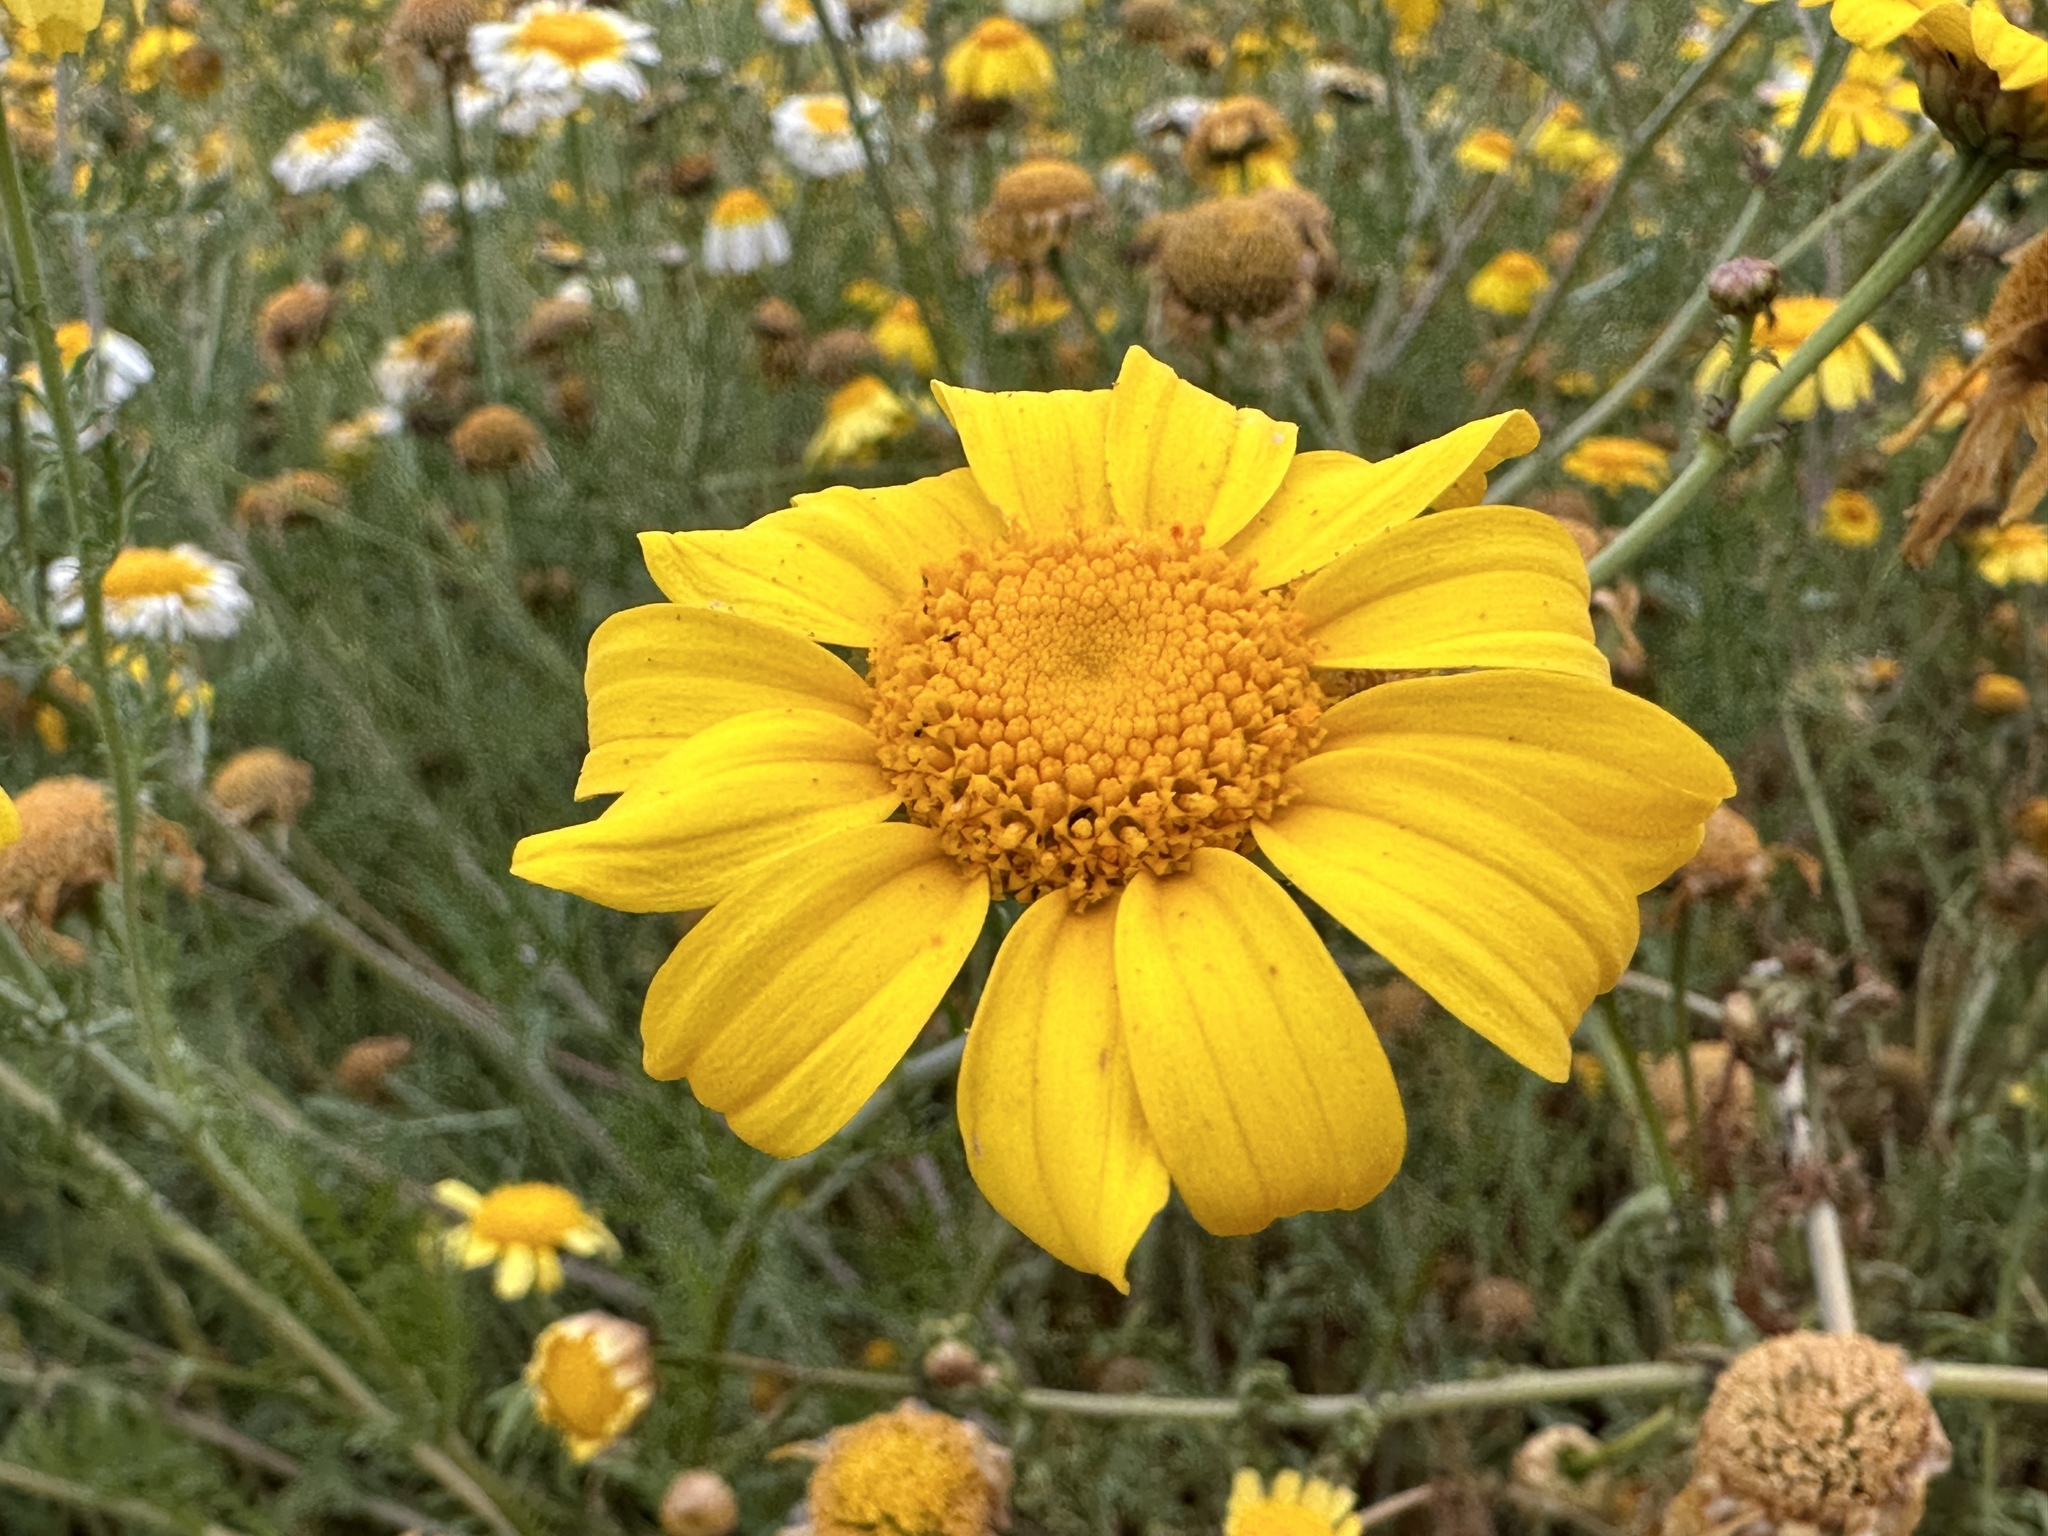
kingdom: Plantae
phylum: Tracheophyta
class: Magnoliopsida
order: Asterales
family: Asteraceae
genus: Glebionis
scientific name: Glebionis coronaria
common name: Crowndaisy
